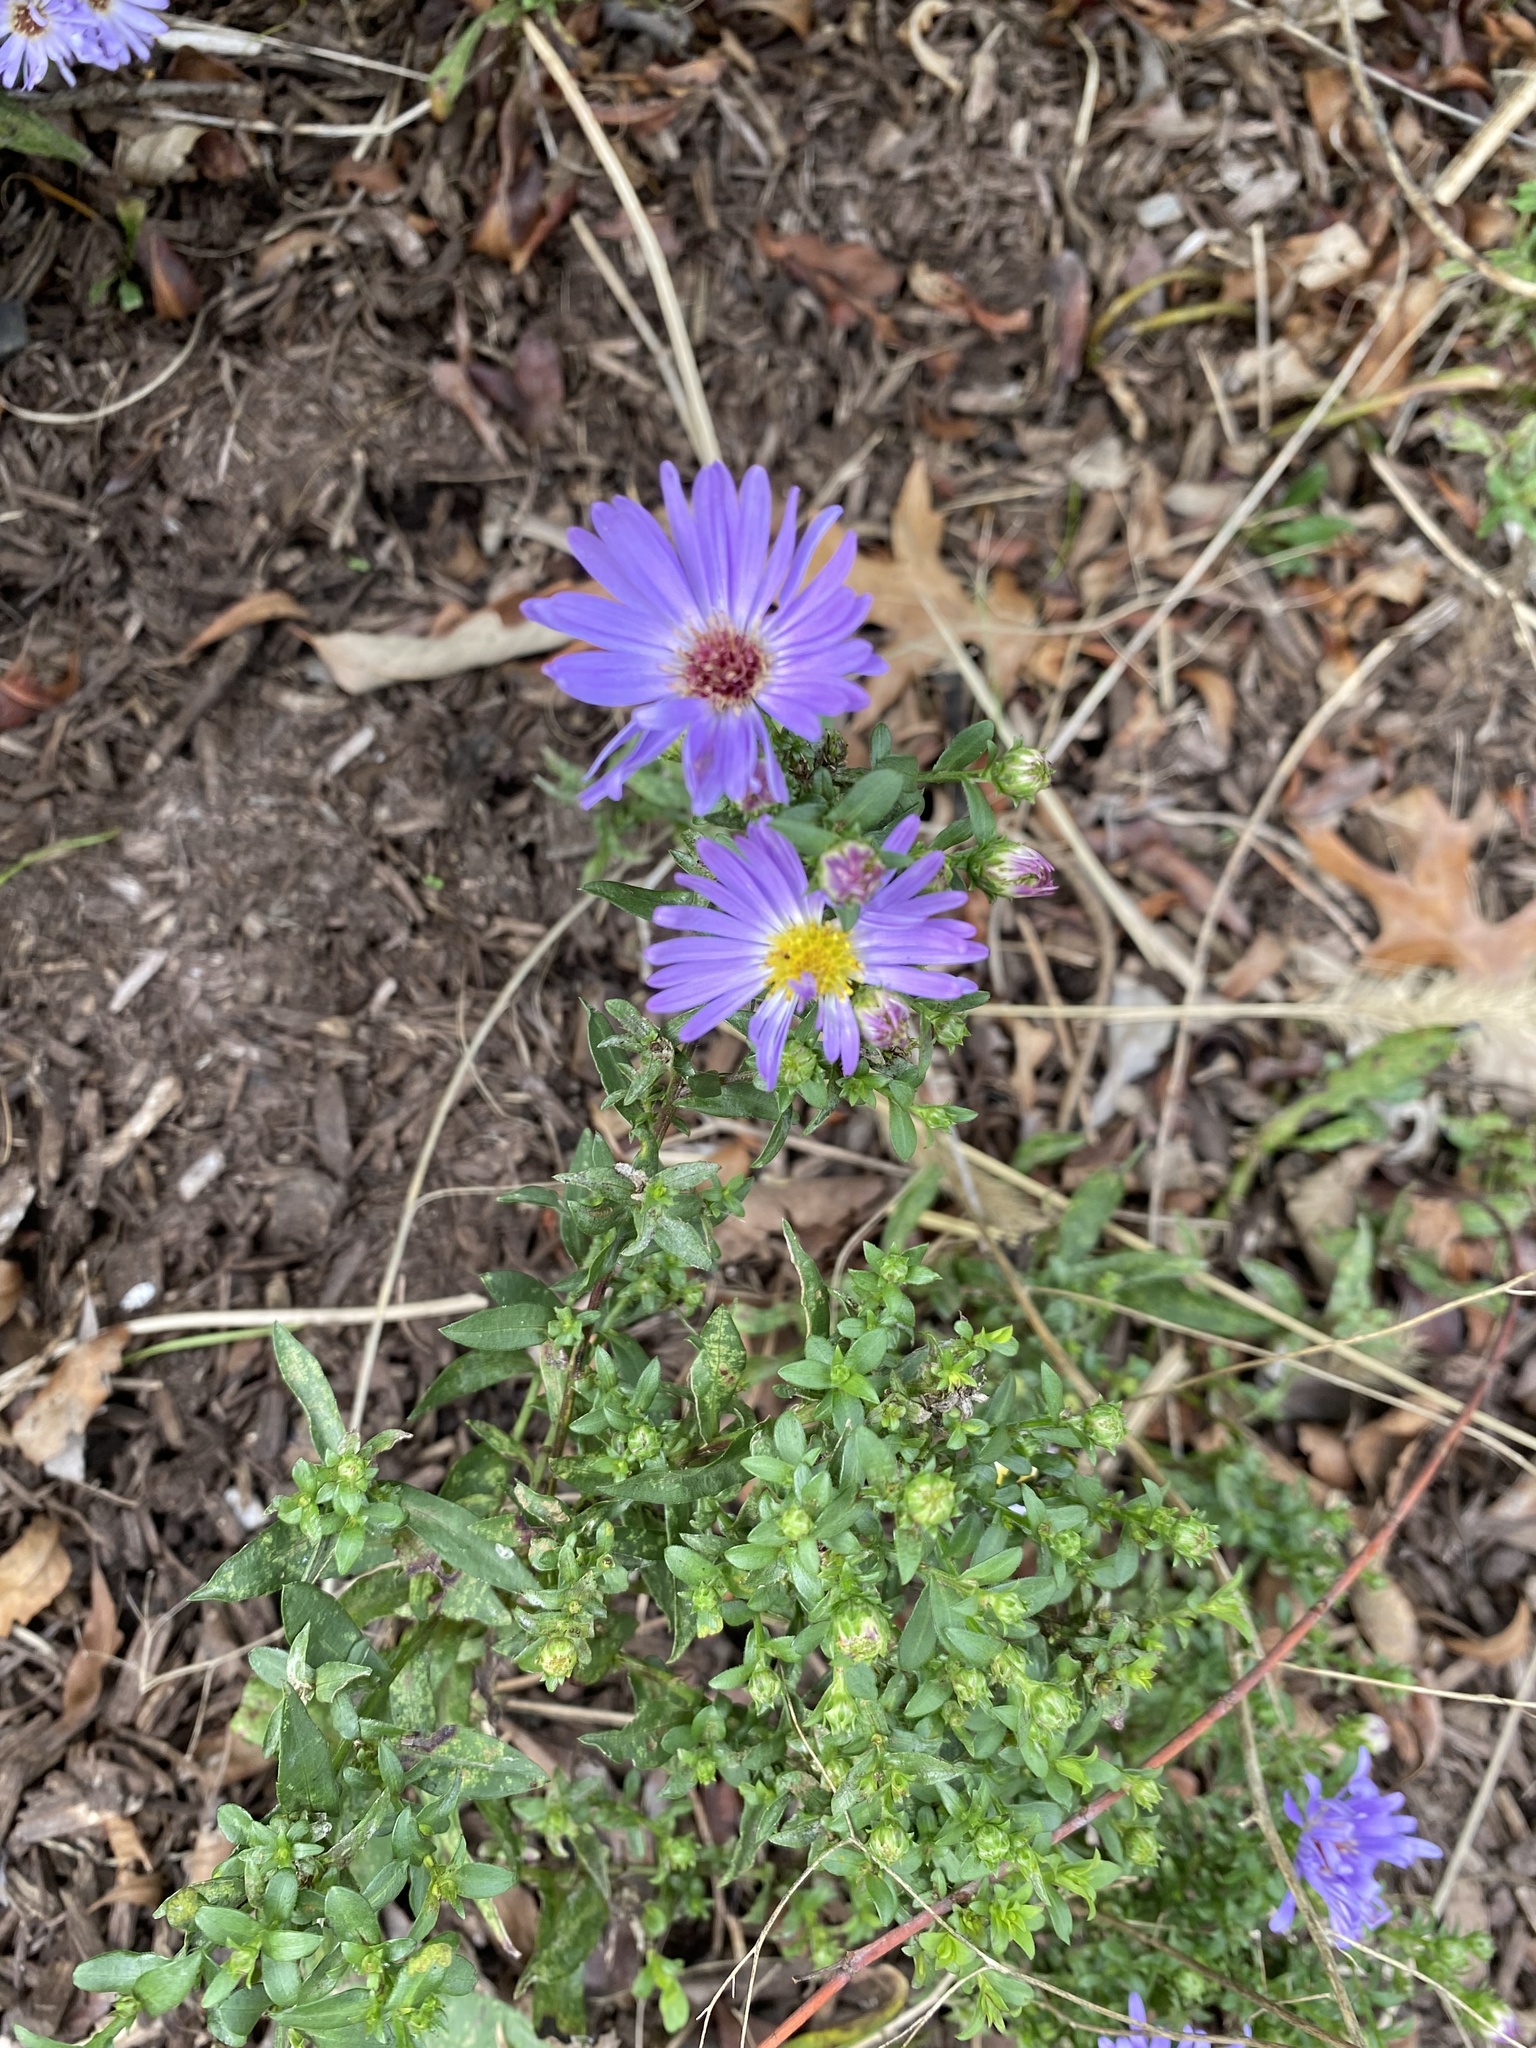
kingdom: Plantae
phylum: Tracheophyta
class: Magnoliopsida
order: Asterales
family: Asteraceae
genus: Symphyotrichum
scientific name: Symphyotrichum oblongifolium
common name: Aromatic aster
